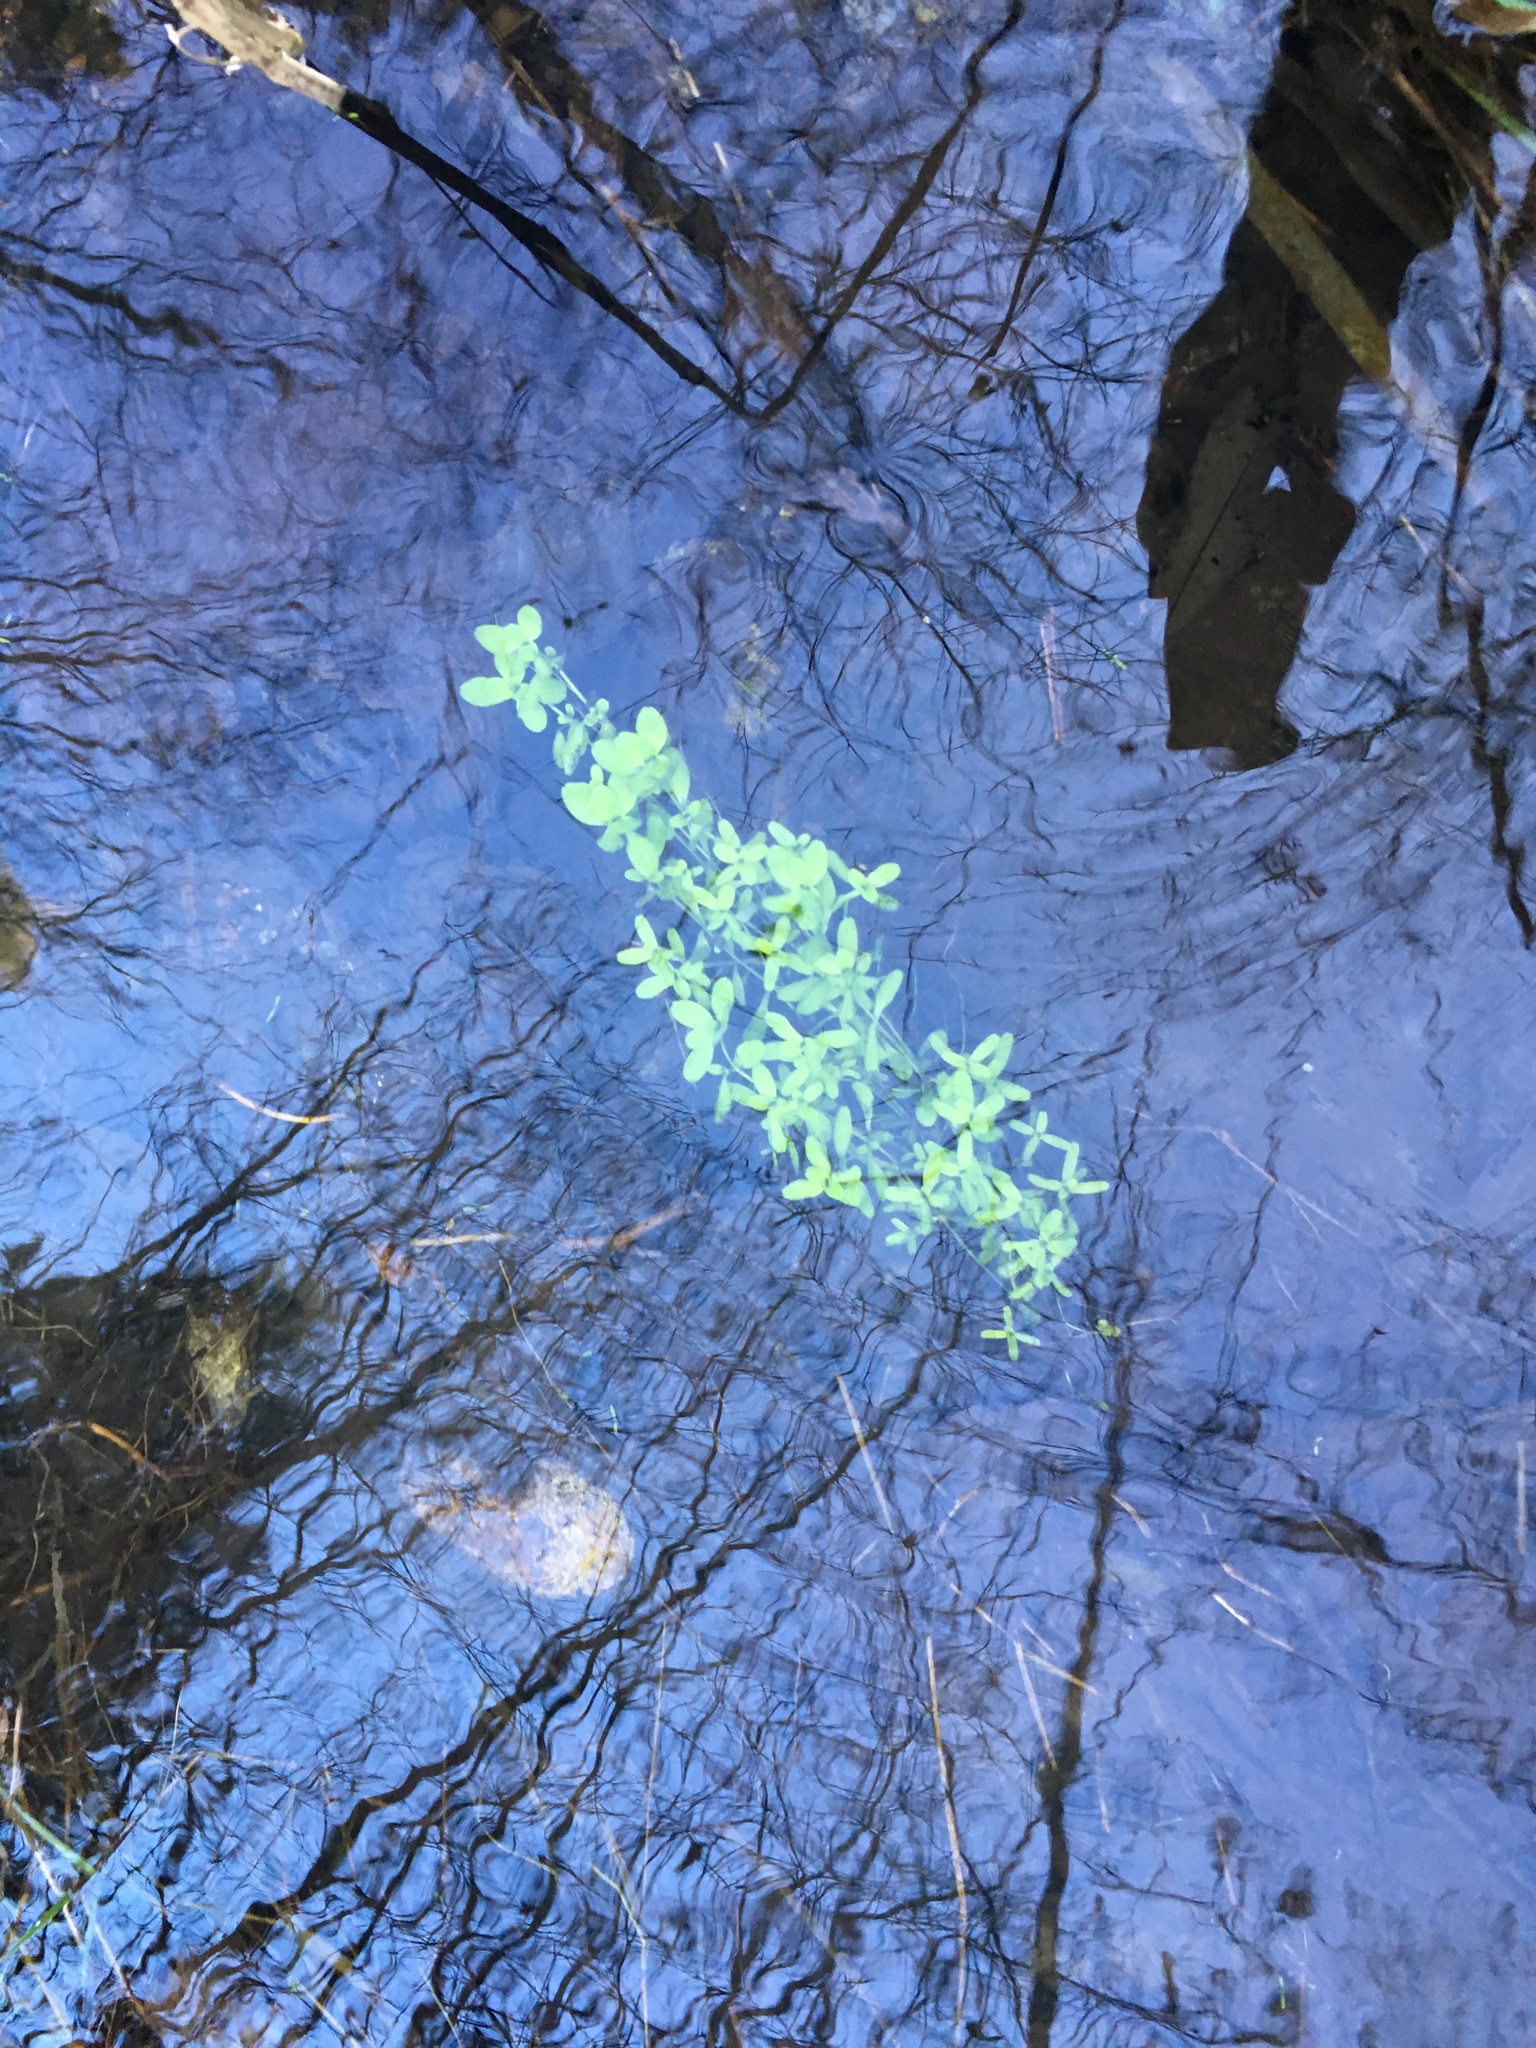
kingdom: Plantae
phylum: Tracheophyta
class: Magnoliopsida
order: Lamiales
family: Plantaginaceae
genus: Callitriche
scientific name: Callitriche stagnalis
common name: Common water-starwort
